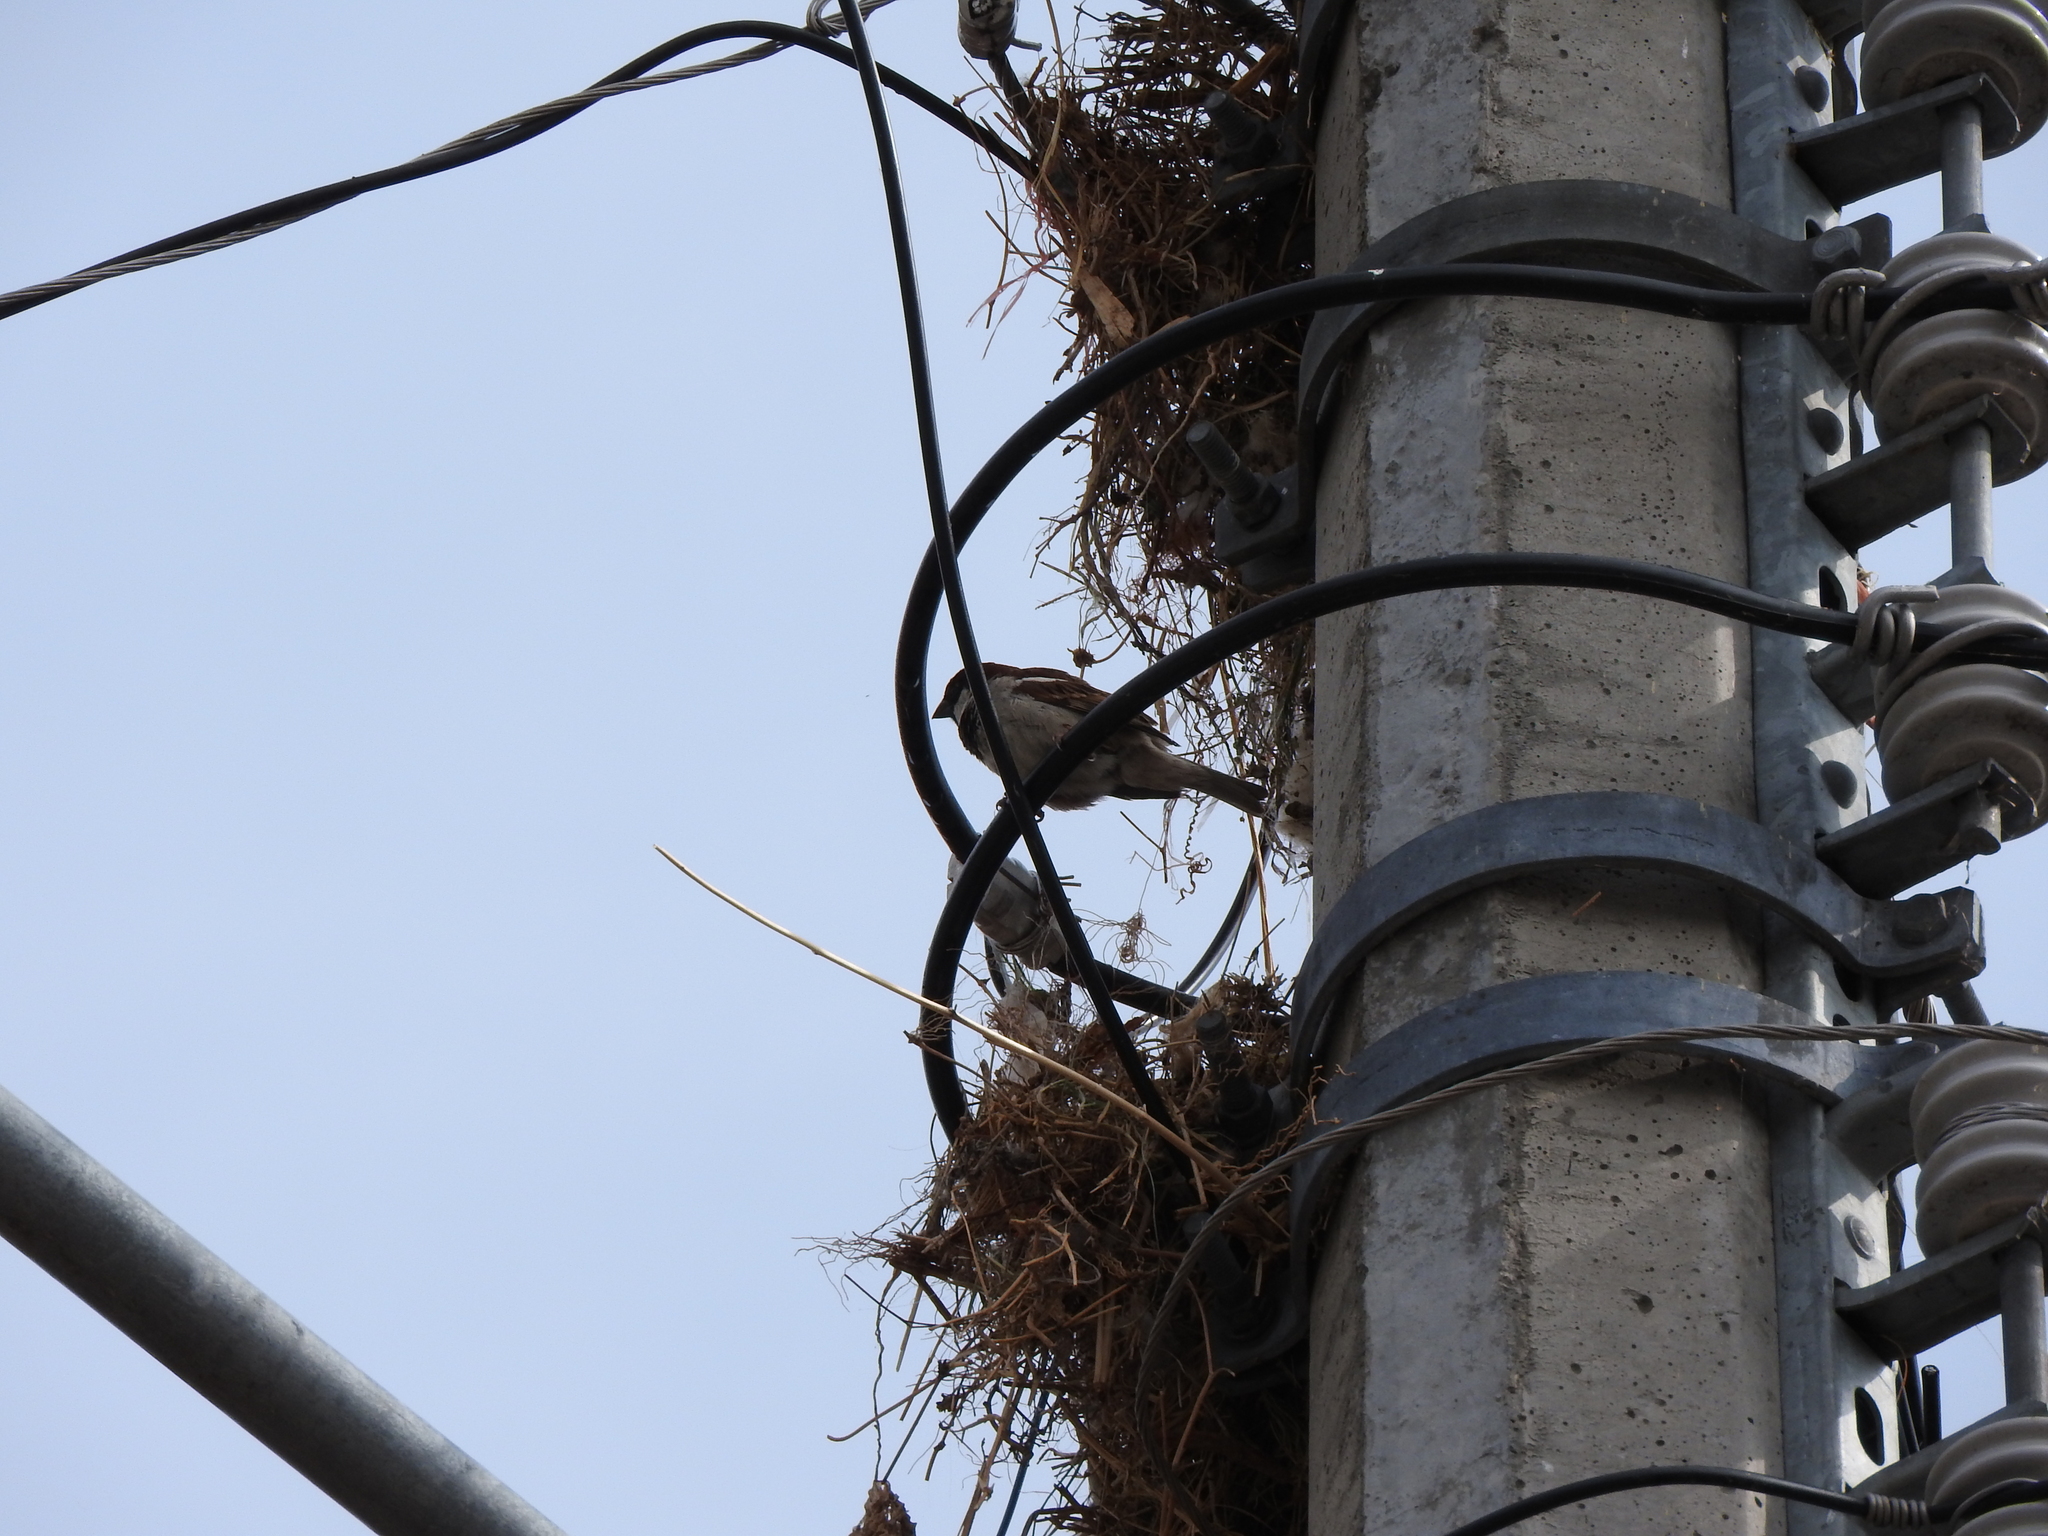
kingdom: Animalia
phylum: Chordata
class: Aves
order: Passeriformes
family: Passeridae
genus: Passer
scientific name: Passer domesticus
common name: House sparrow
